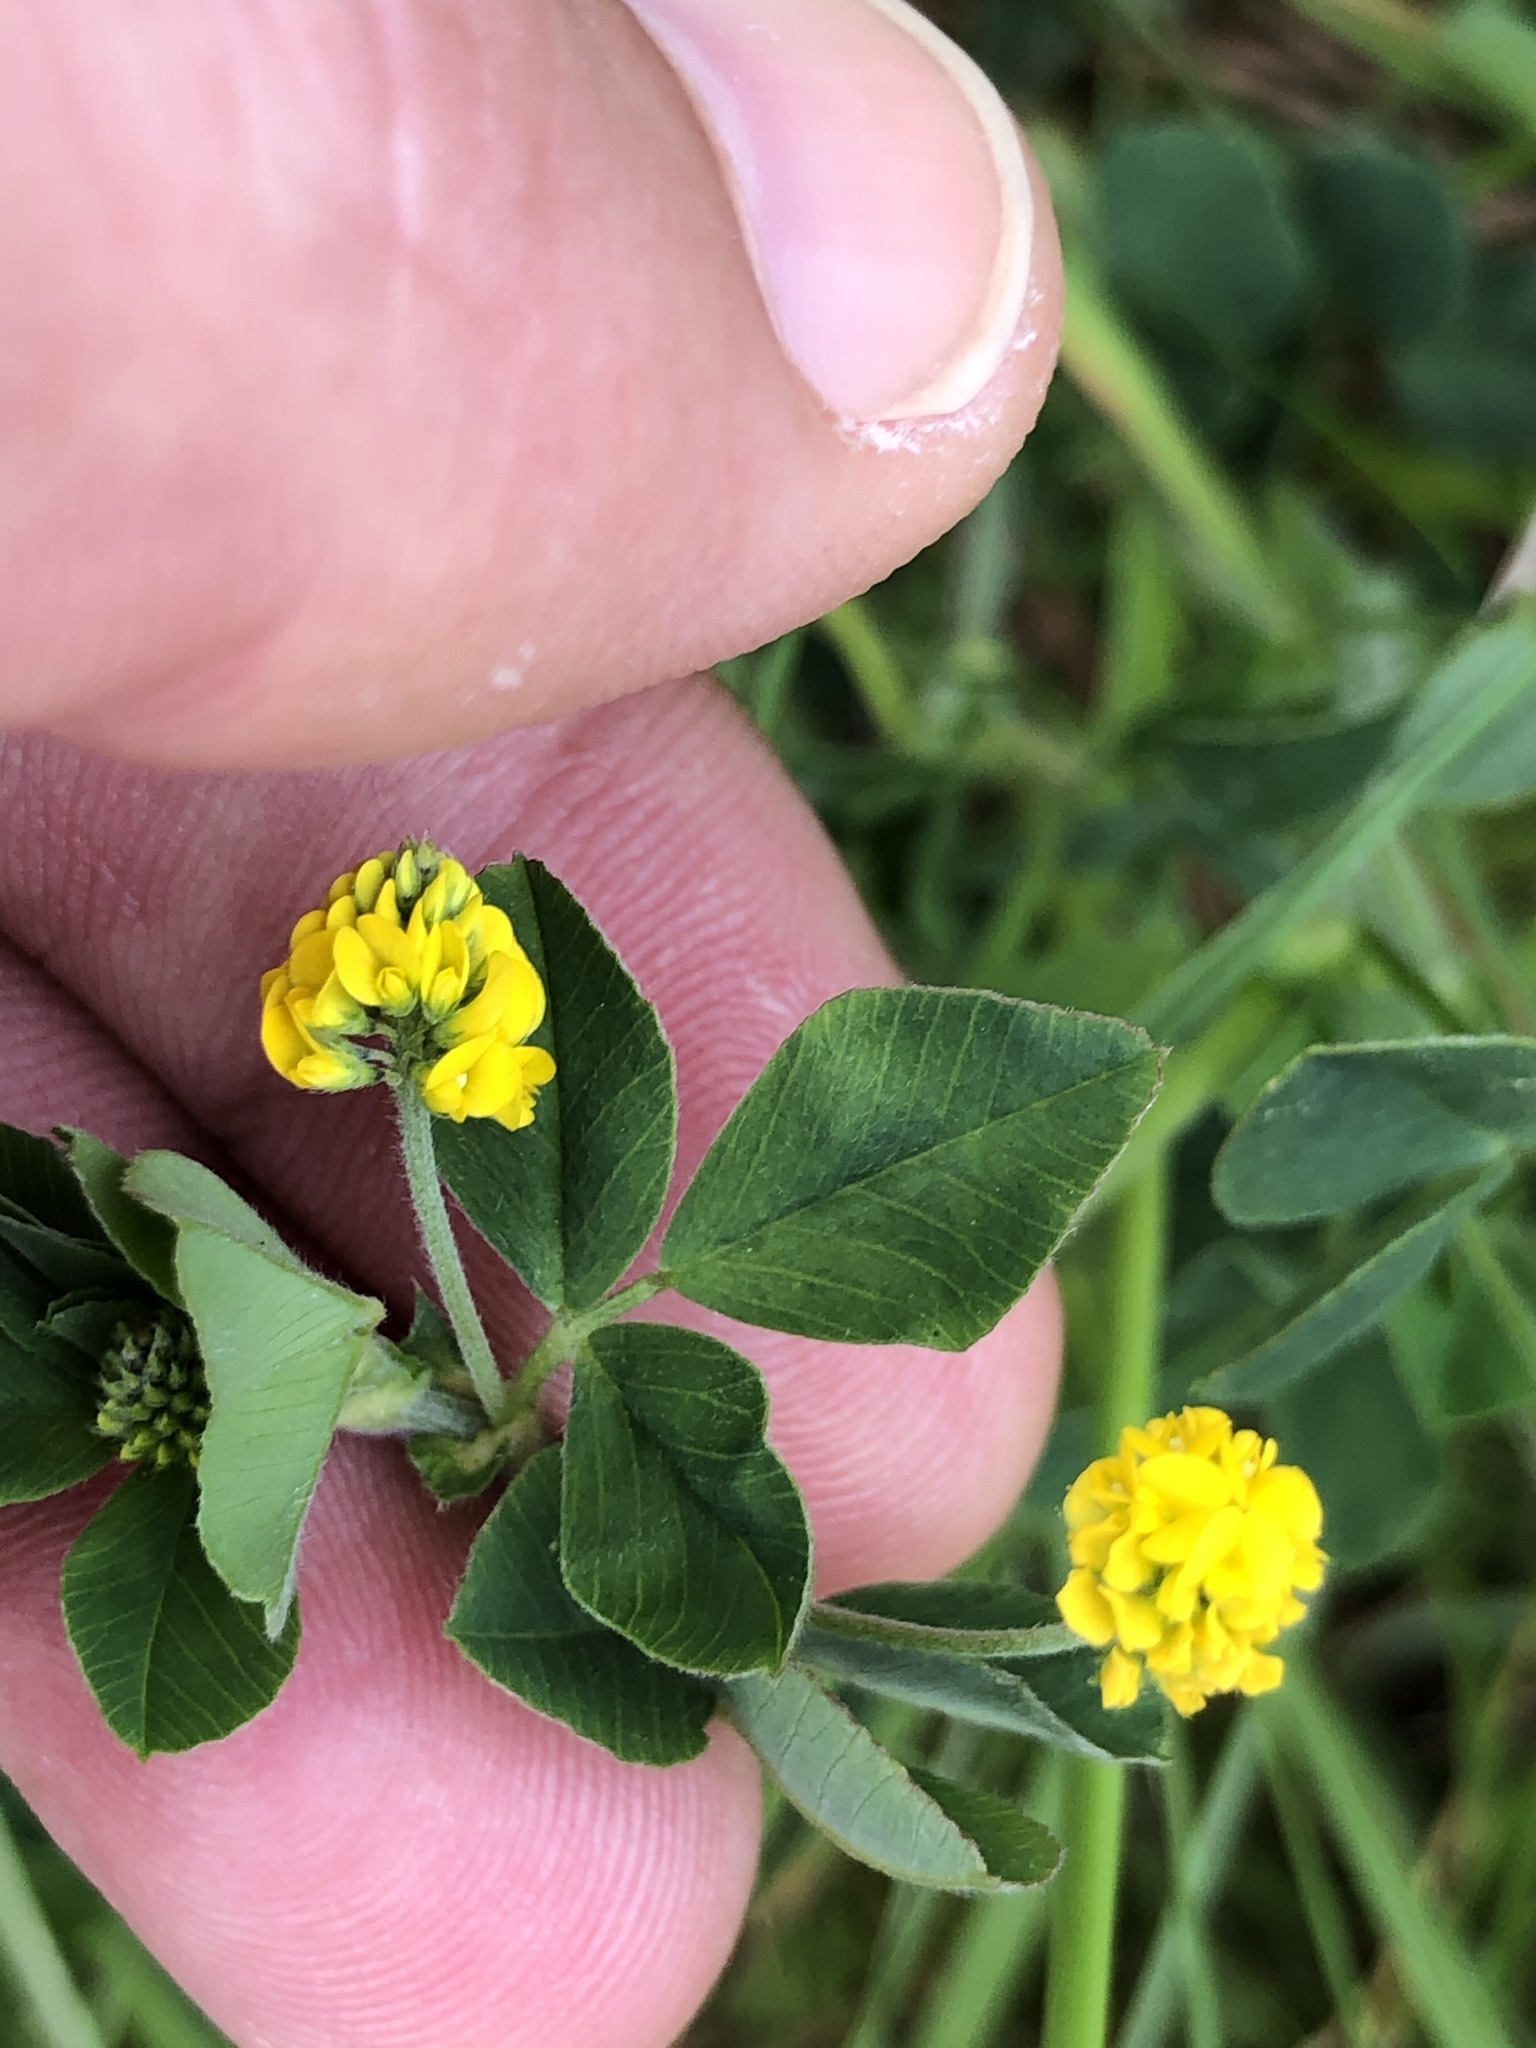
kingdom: Plantae
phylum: Tracheophyta
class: Magnoliopsida
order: Fabales
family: Fabaceae
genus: Medicago
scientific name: Medicago lupulina
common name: Black medick
